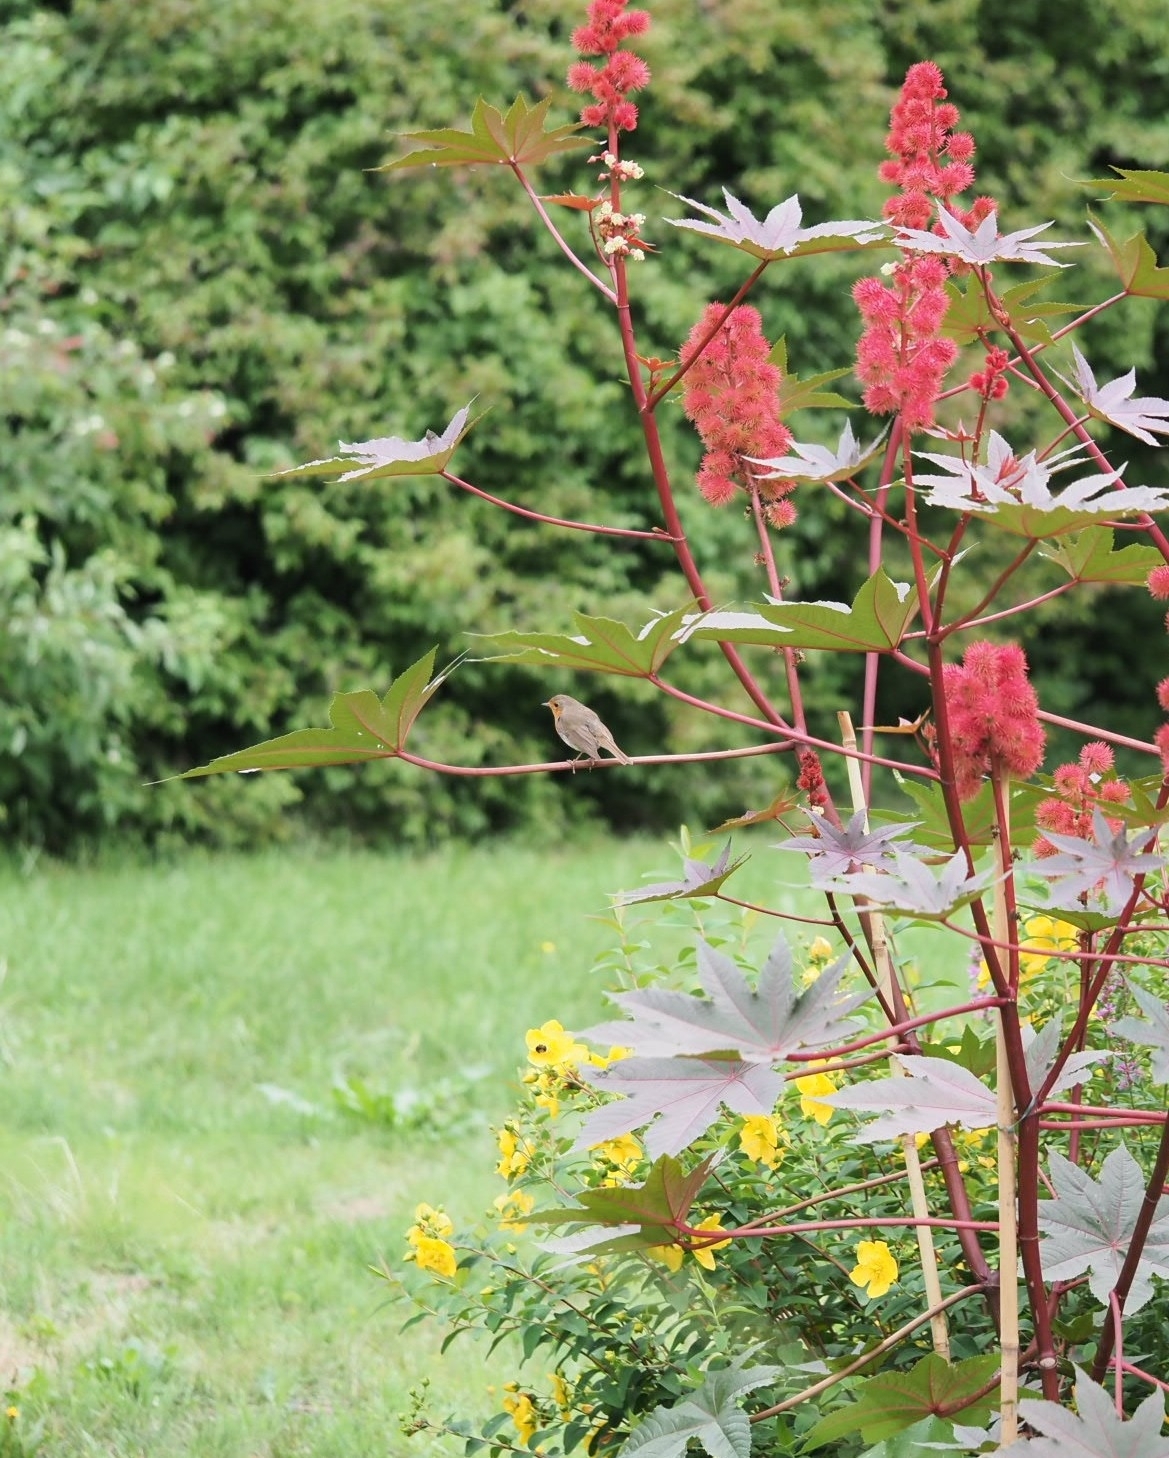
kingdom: Animalia
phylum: Chordata
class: Aves
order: Passeriformes
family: Muscicapidae
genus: Erithacus
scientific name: Erithacus rubecula
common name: European robin
